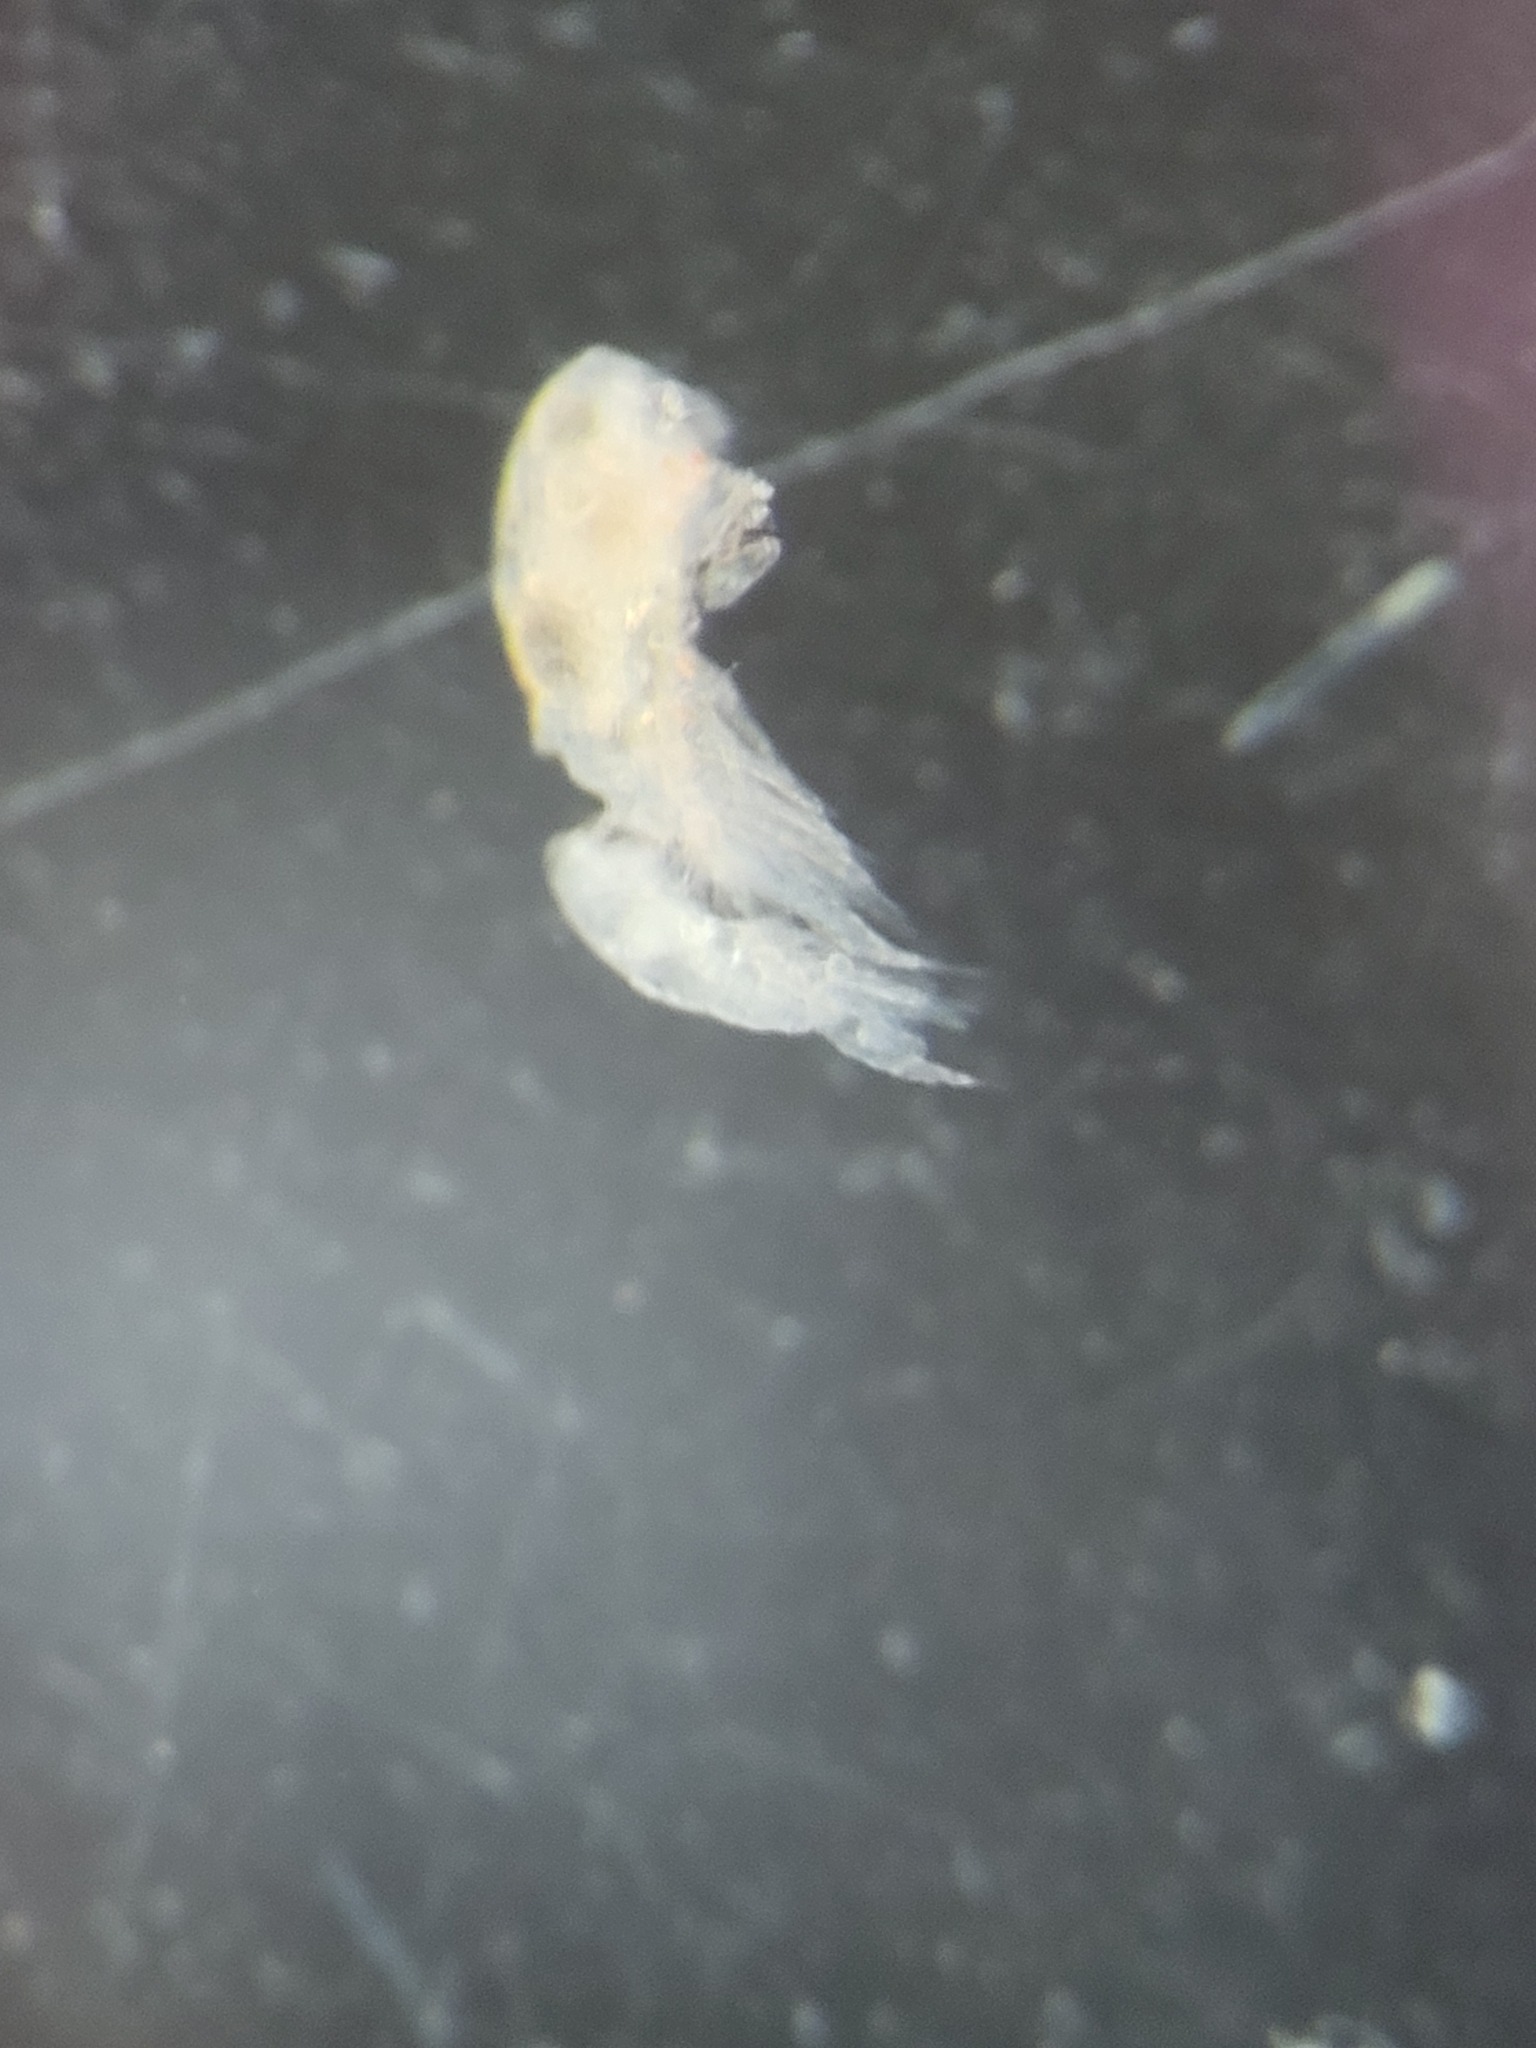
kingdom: Animalia
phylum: Arthropoda
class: Copepoda
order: Cyclopoida
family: Oncaeidae
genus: Triconia
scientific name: Triconia borealis
